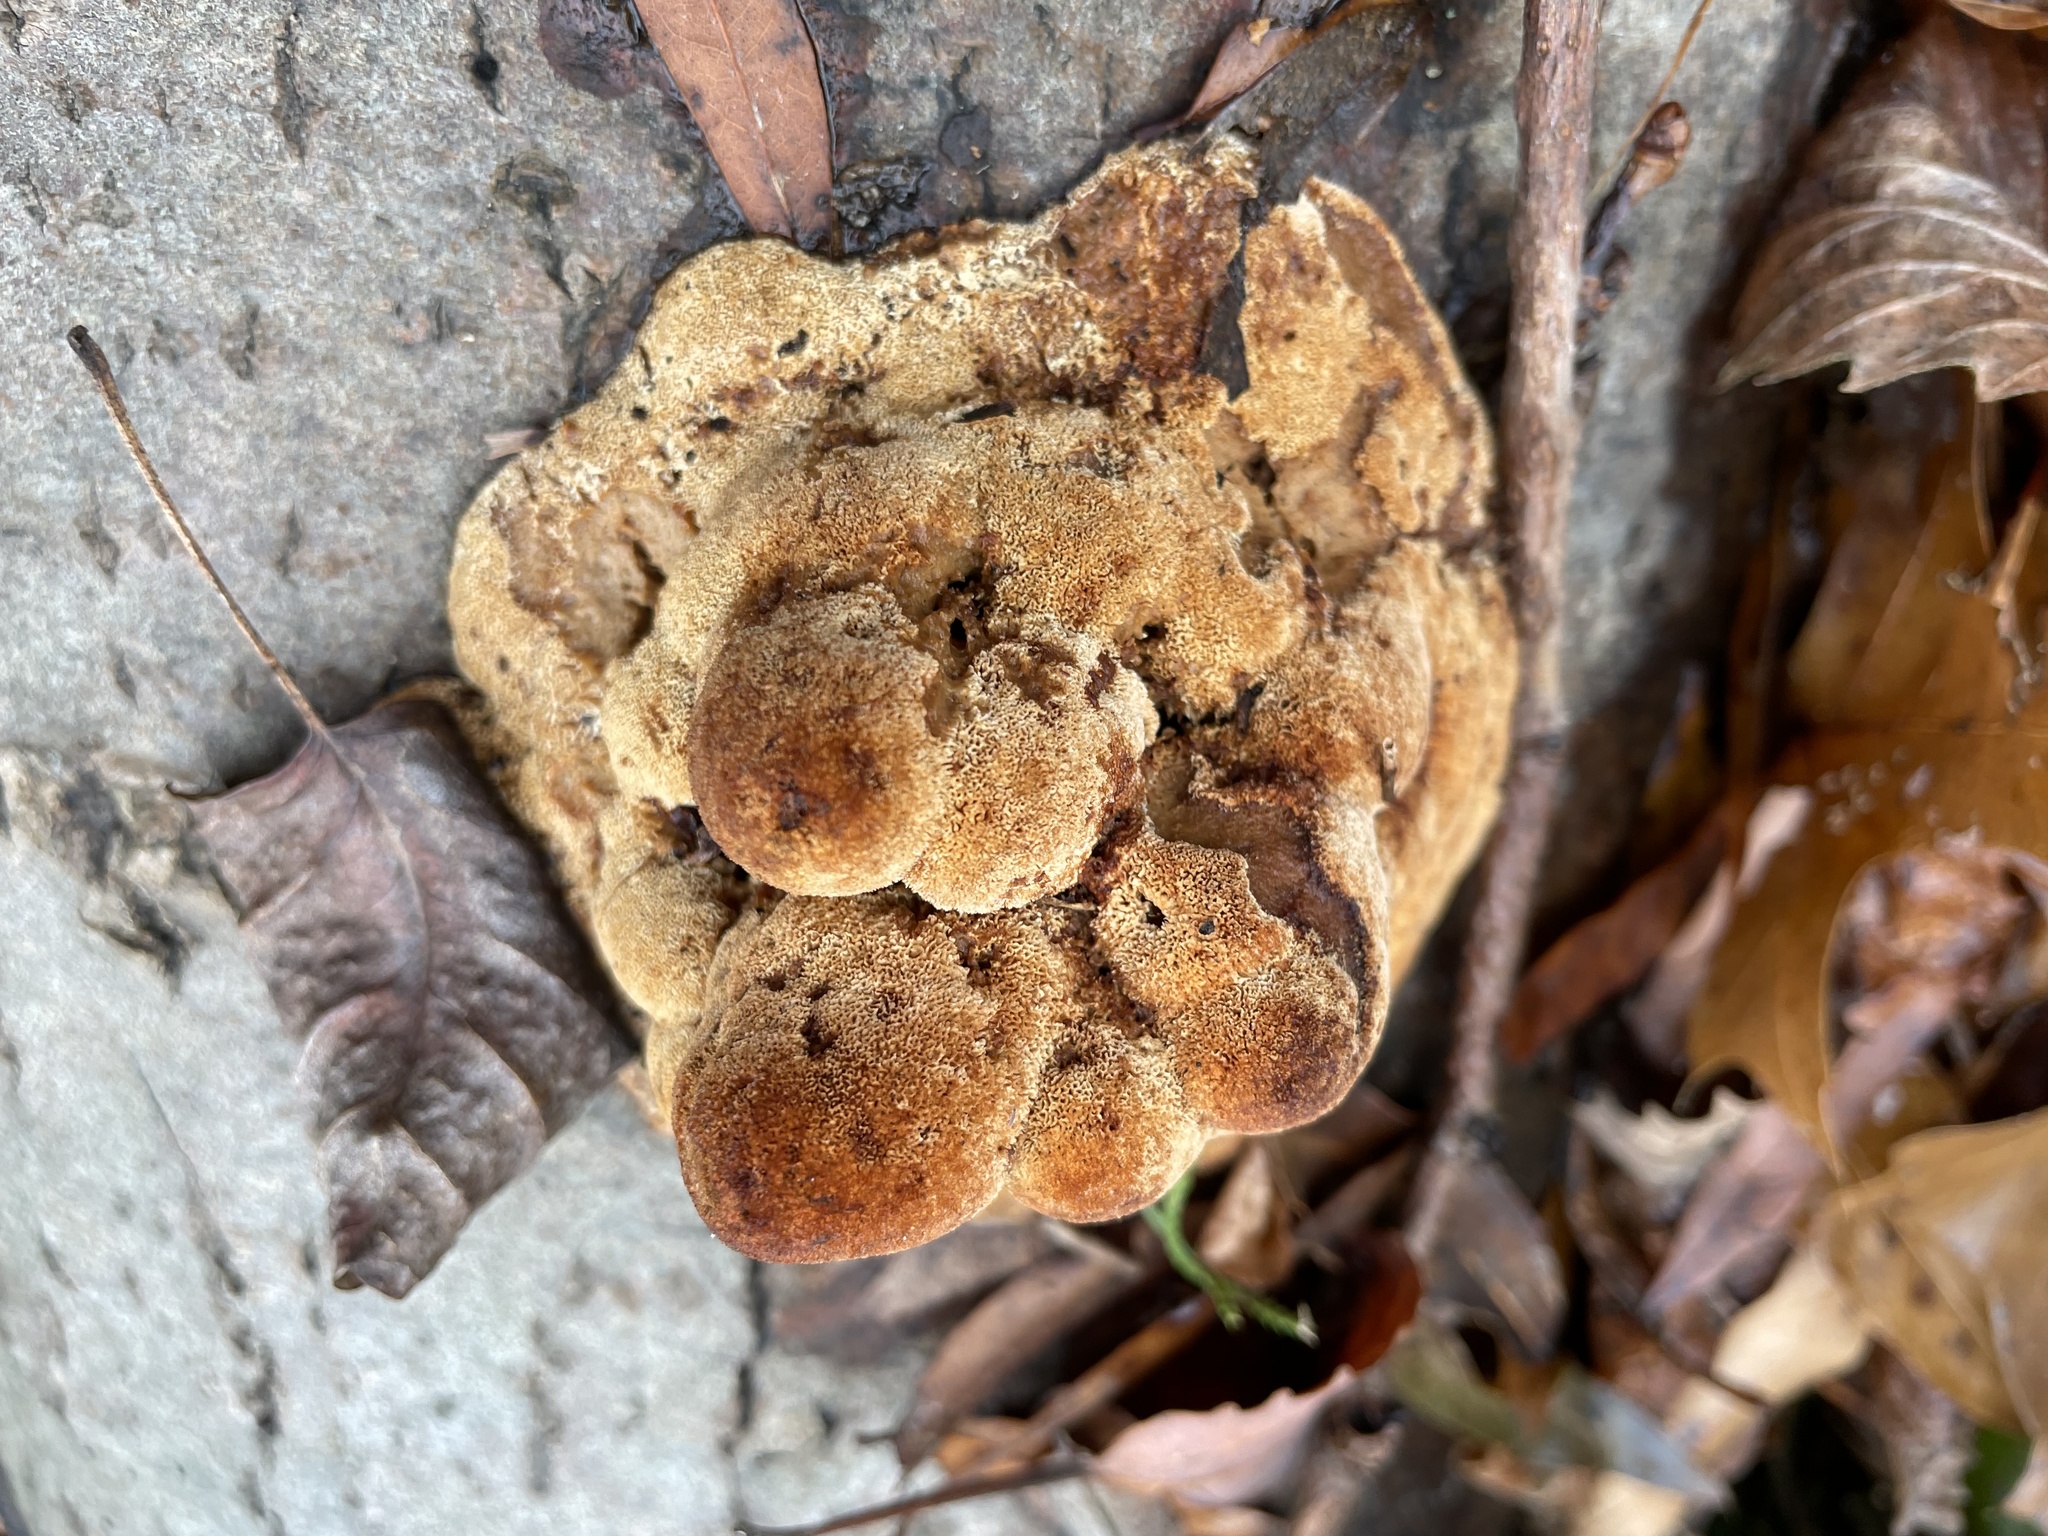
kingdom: Fungi
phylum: Basidiomycota
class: Agaricomycetes
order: Polyporales
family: Podoscyphaceae
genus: Abortiporus
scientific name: Abortiporus biennis
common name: Blushing rosette
